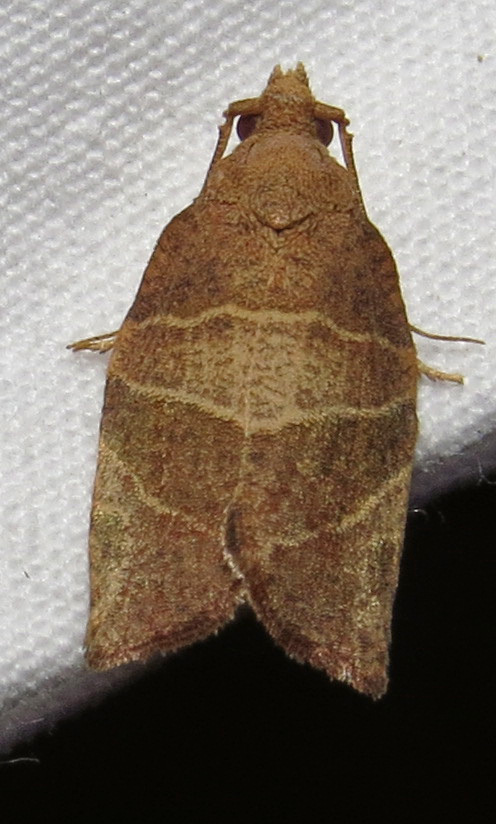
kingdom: Animalia
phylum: Arthropoda
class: Insecta
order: Lepidoptera
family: Tortricidae
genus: Pandemis
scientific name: Pandemis limitata
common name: Three-lined leafroller moth
